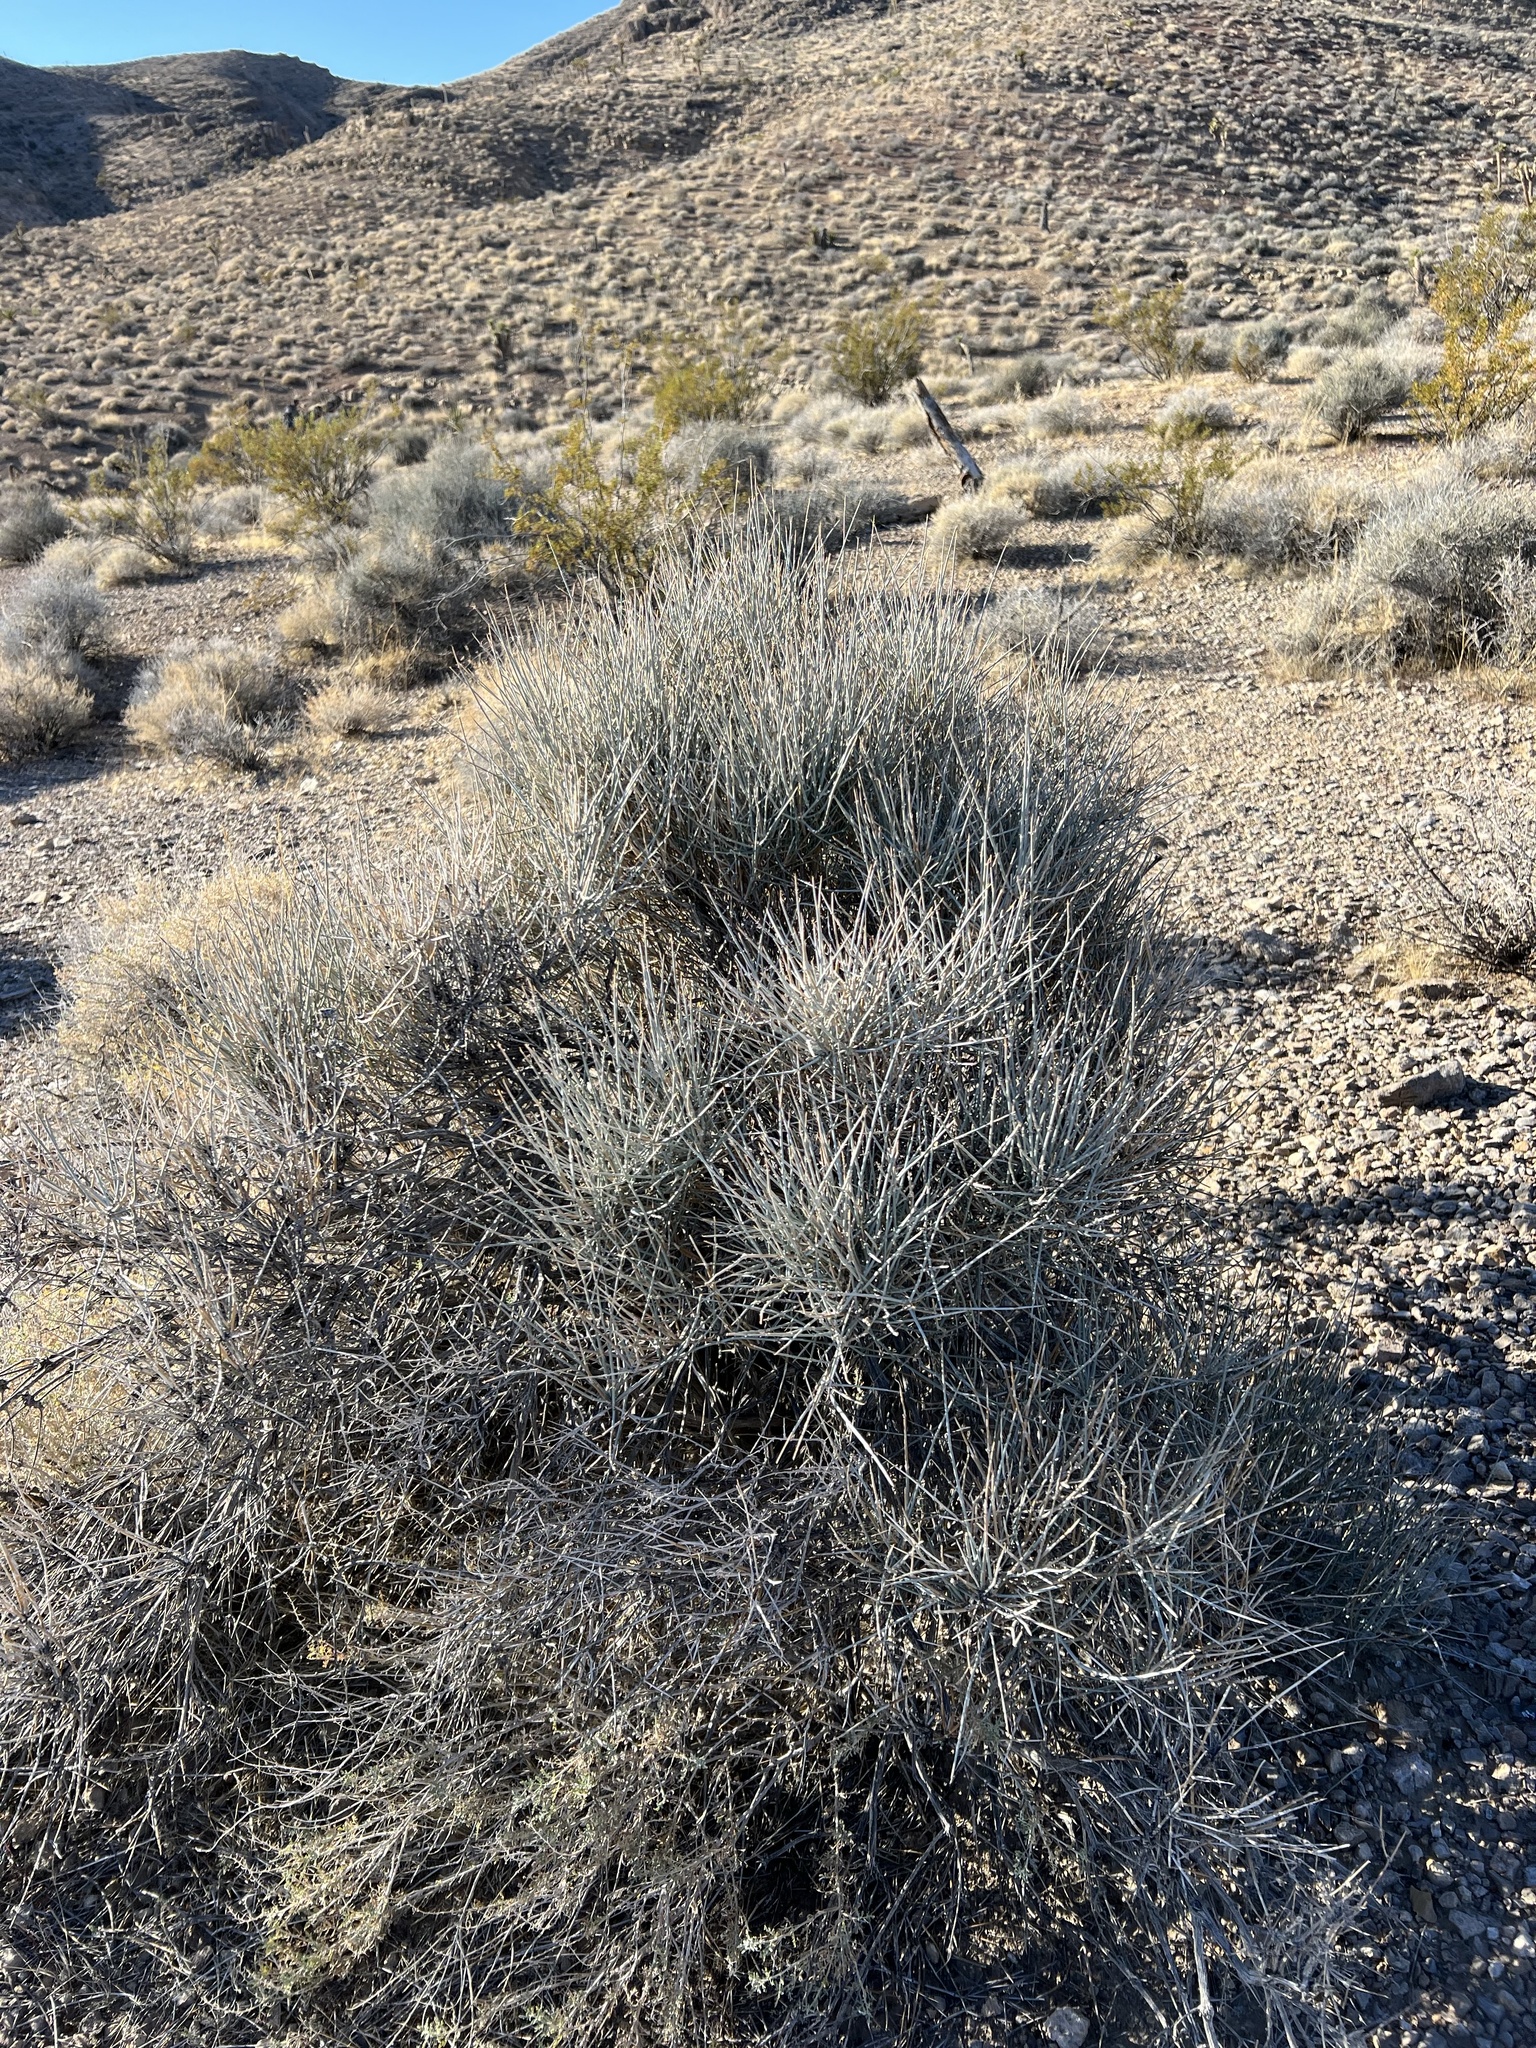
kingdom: Plantae
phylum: Tracheophyta
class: Gnetopsida
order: Ephedrales
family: Ephedraceae
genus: Ephedra
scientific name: Ephedra nevadensis
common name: Gray ephedra
